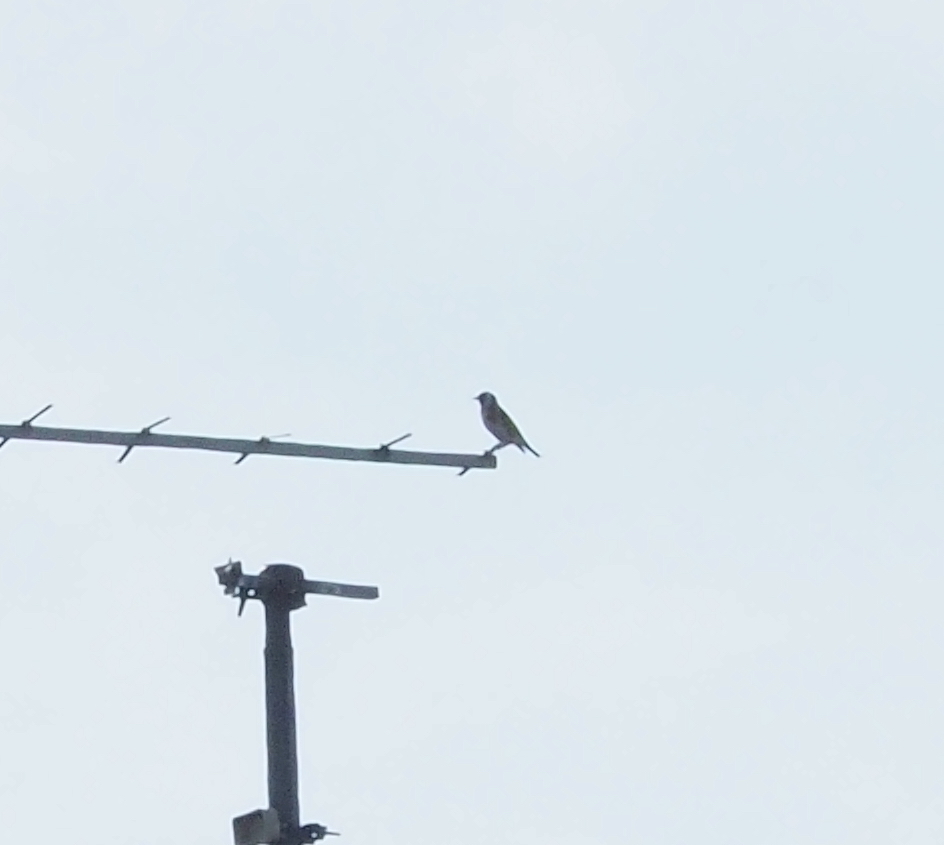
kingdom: Animalia
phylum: Chordata
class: Aves
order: Passeriformes
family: Fringillidae
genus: Carduelis
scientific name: Carduelis carduelis
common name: European goldfinch
